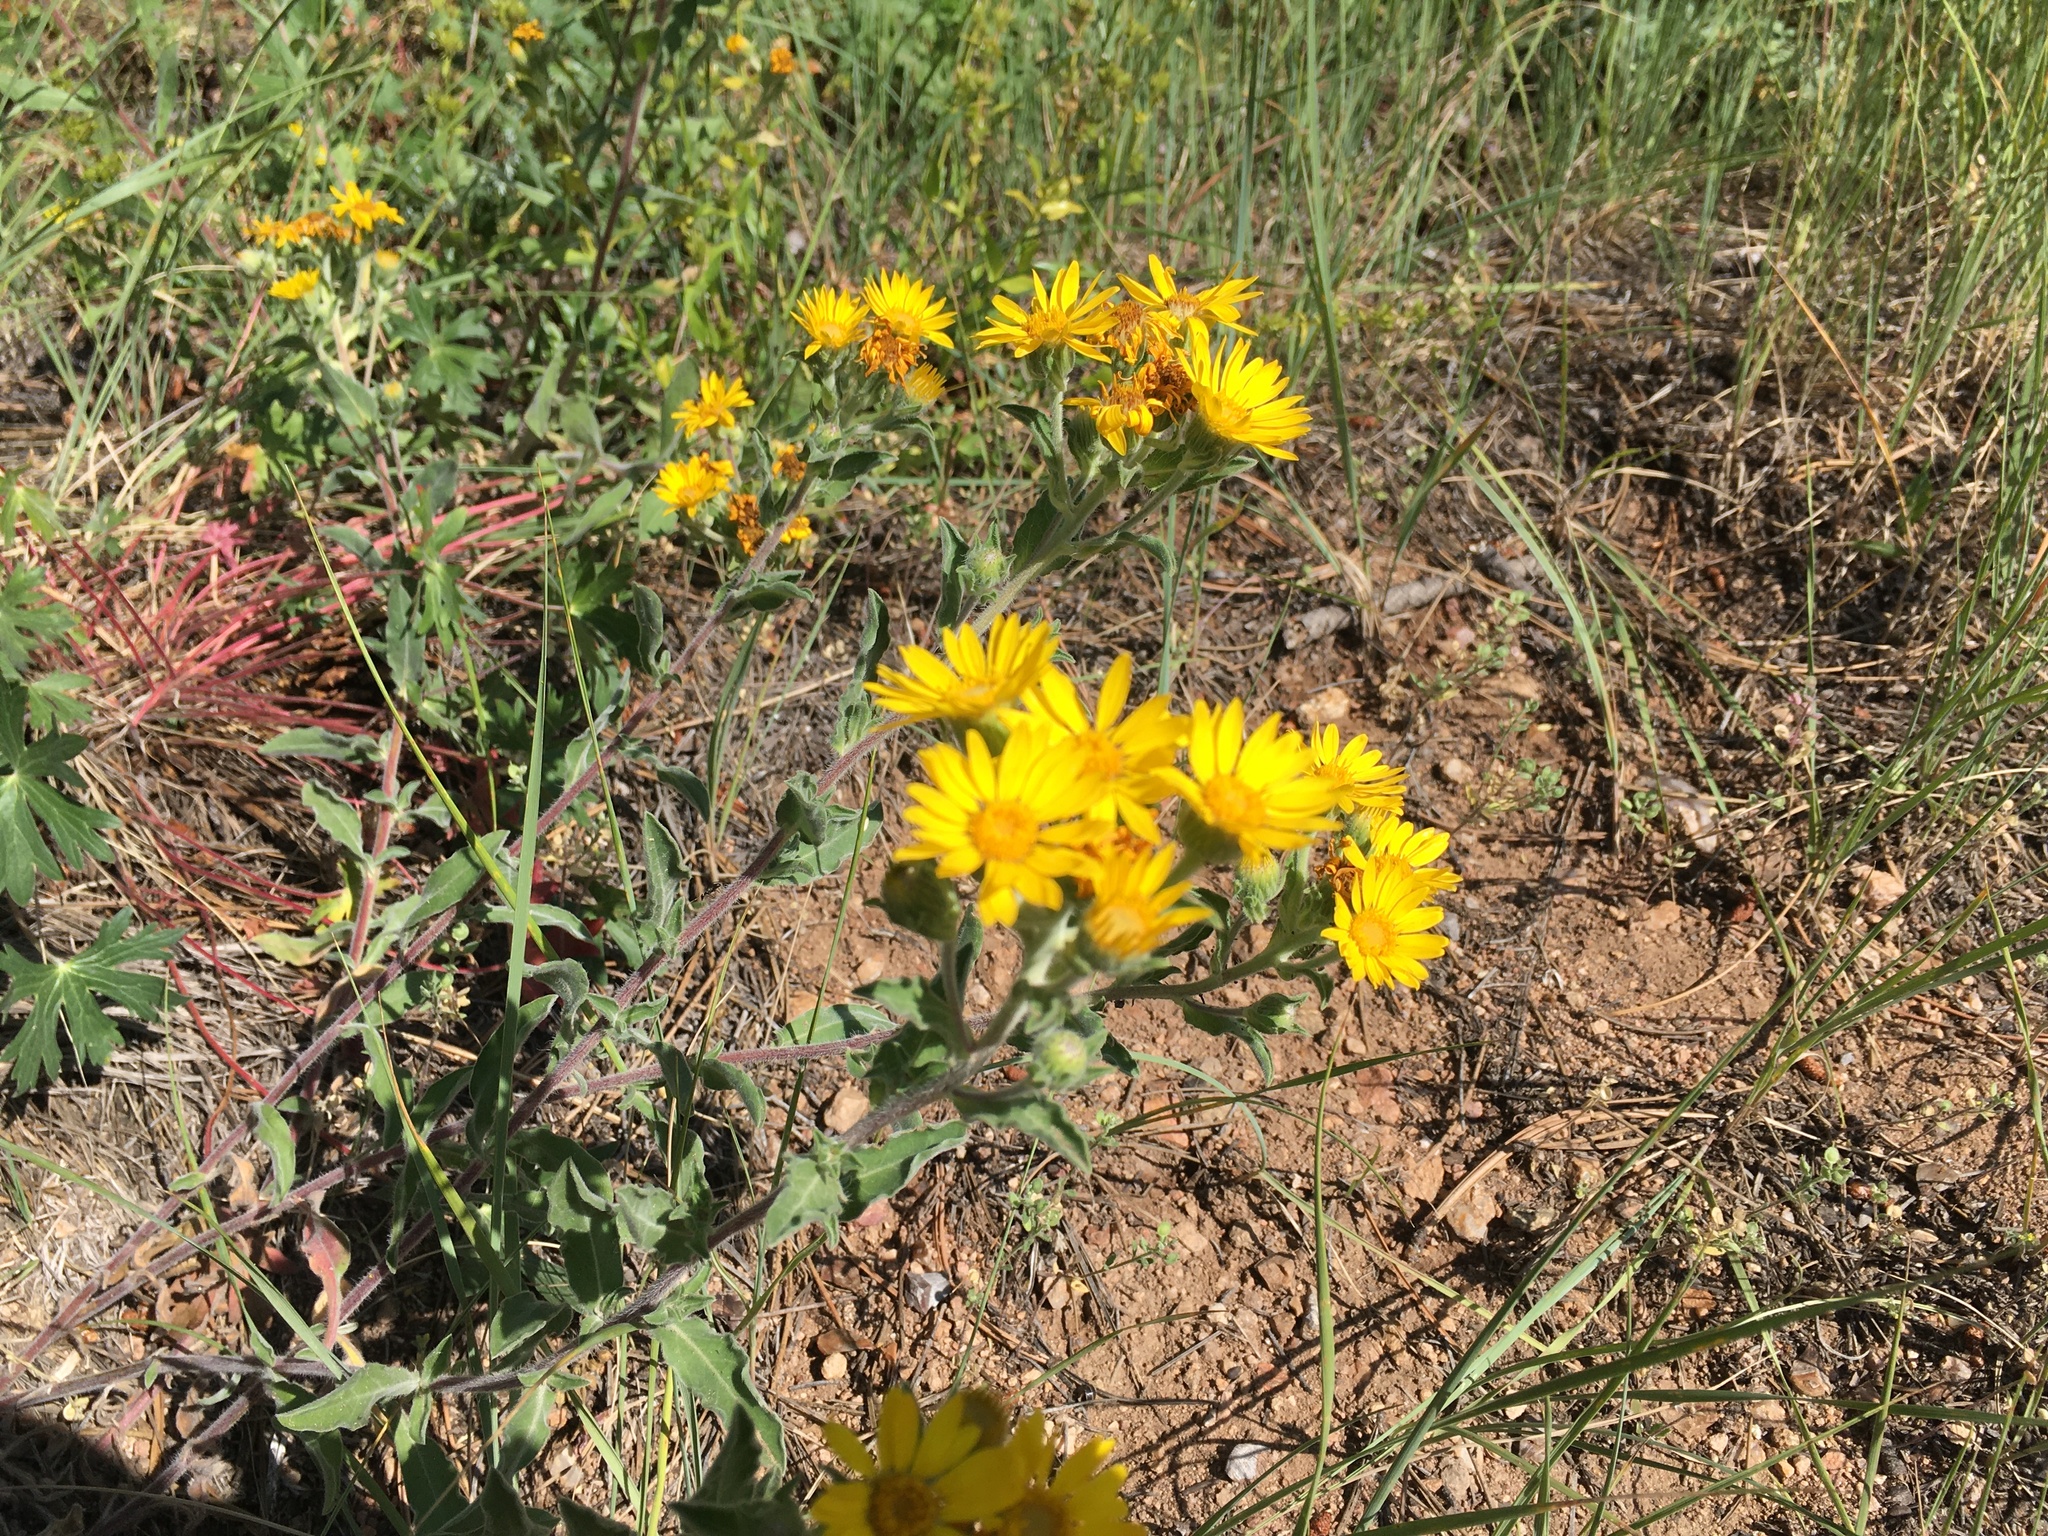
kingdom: Plantae
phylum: Tracheophyta
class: Magnoliopsida
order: Asterales
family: Asteraceae
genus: Heterotheca
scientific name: Heterotheca villosa
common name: Hairy false goldenaster
